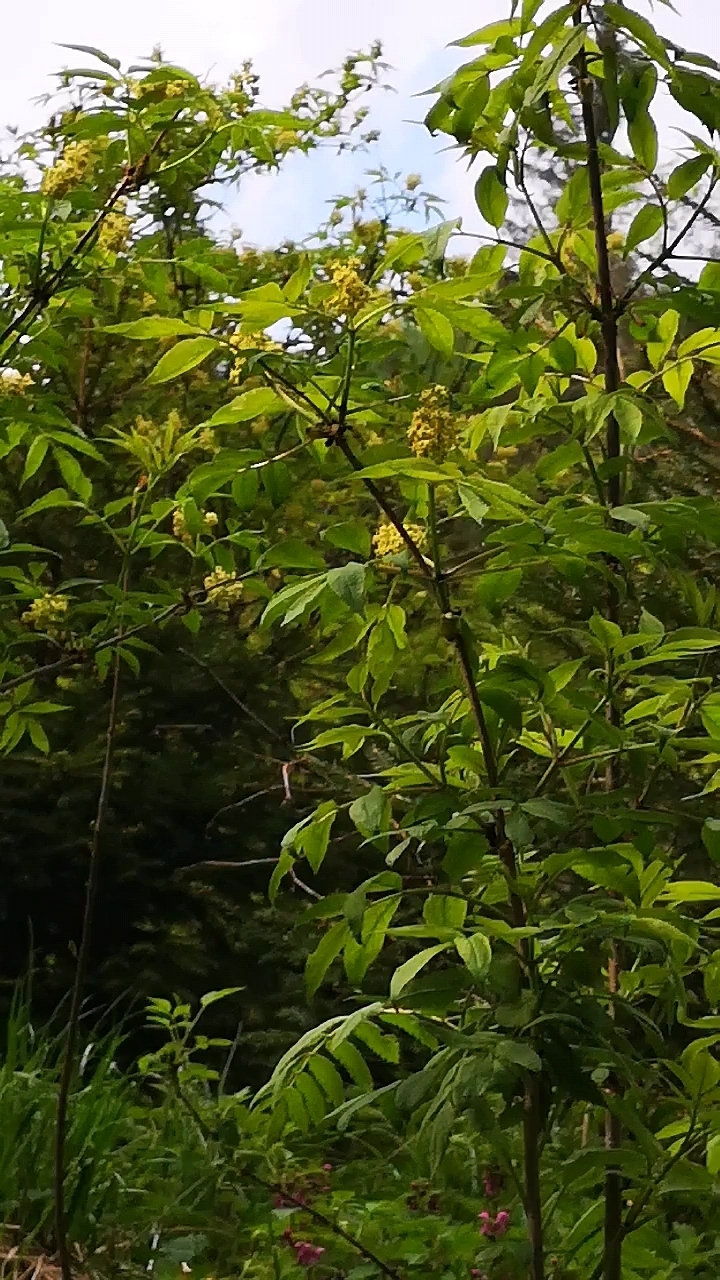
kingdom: Plantae
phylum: Tracheophyta
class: Magnoliopsida
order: Dipsacales
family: Viburnaceae
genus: Sambucus
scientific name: Sambucus racemosa
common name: Red-berried elder
